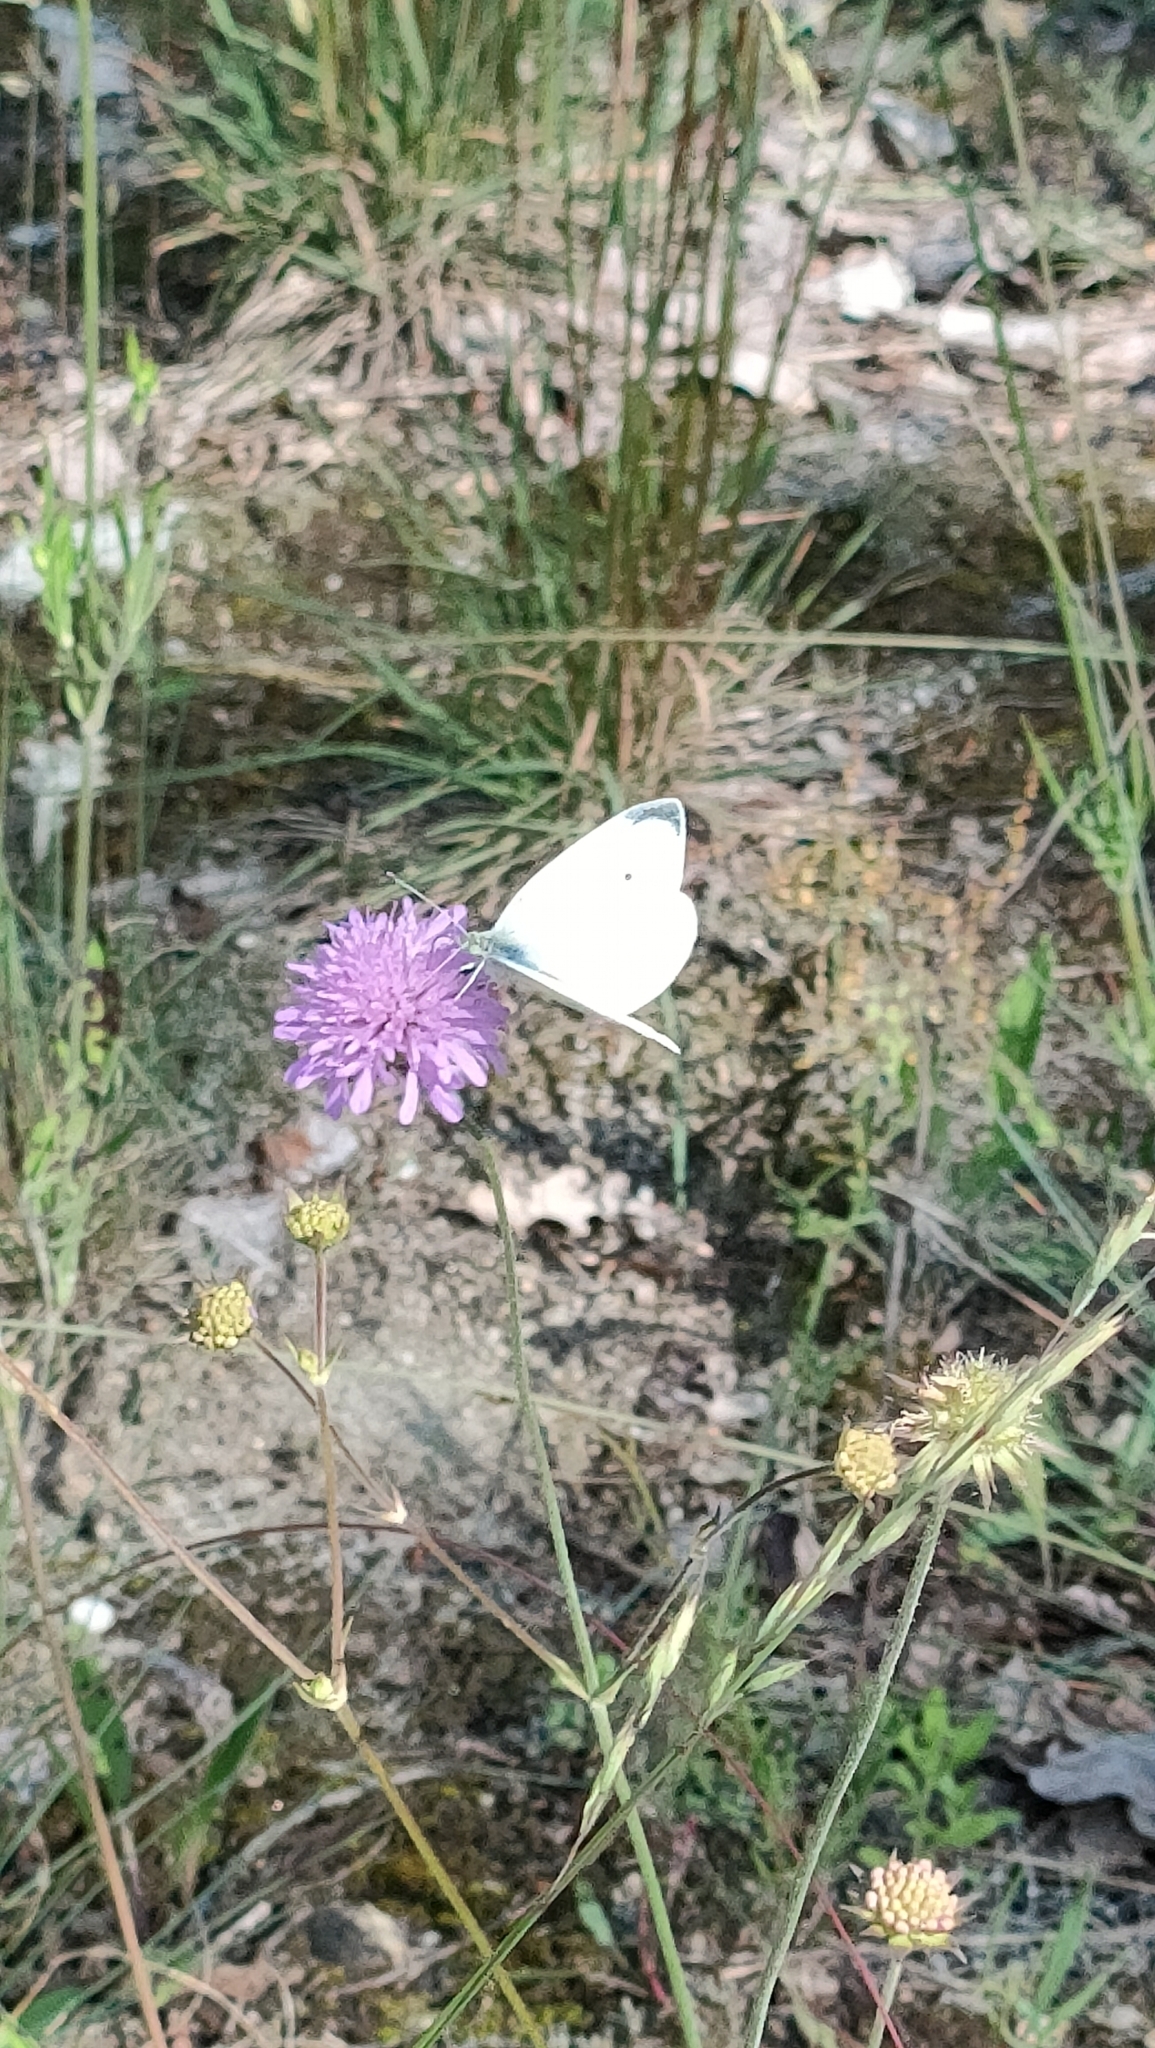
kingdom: Animalia
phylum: Arthropoda
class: Insecta
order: Lepidoptera
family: Pieridae
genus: Pieris
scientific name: Pieris rapae
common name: Small white
